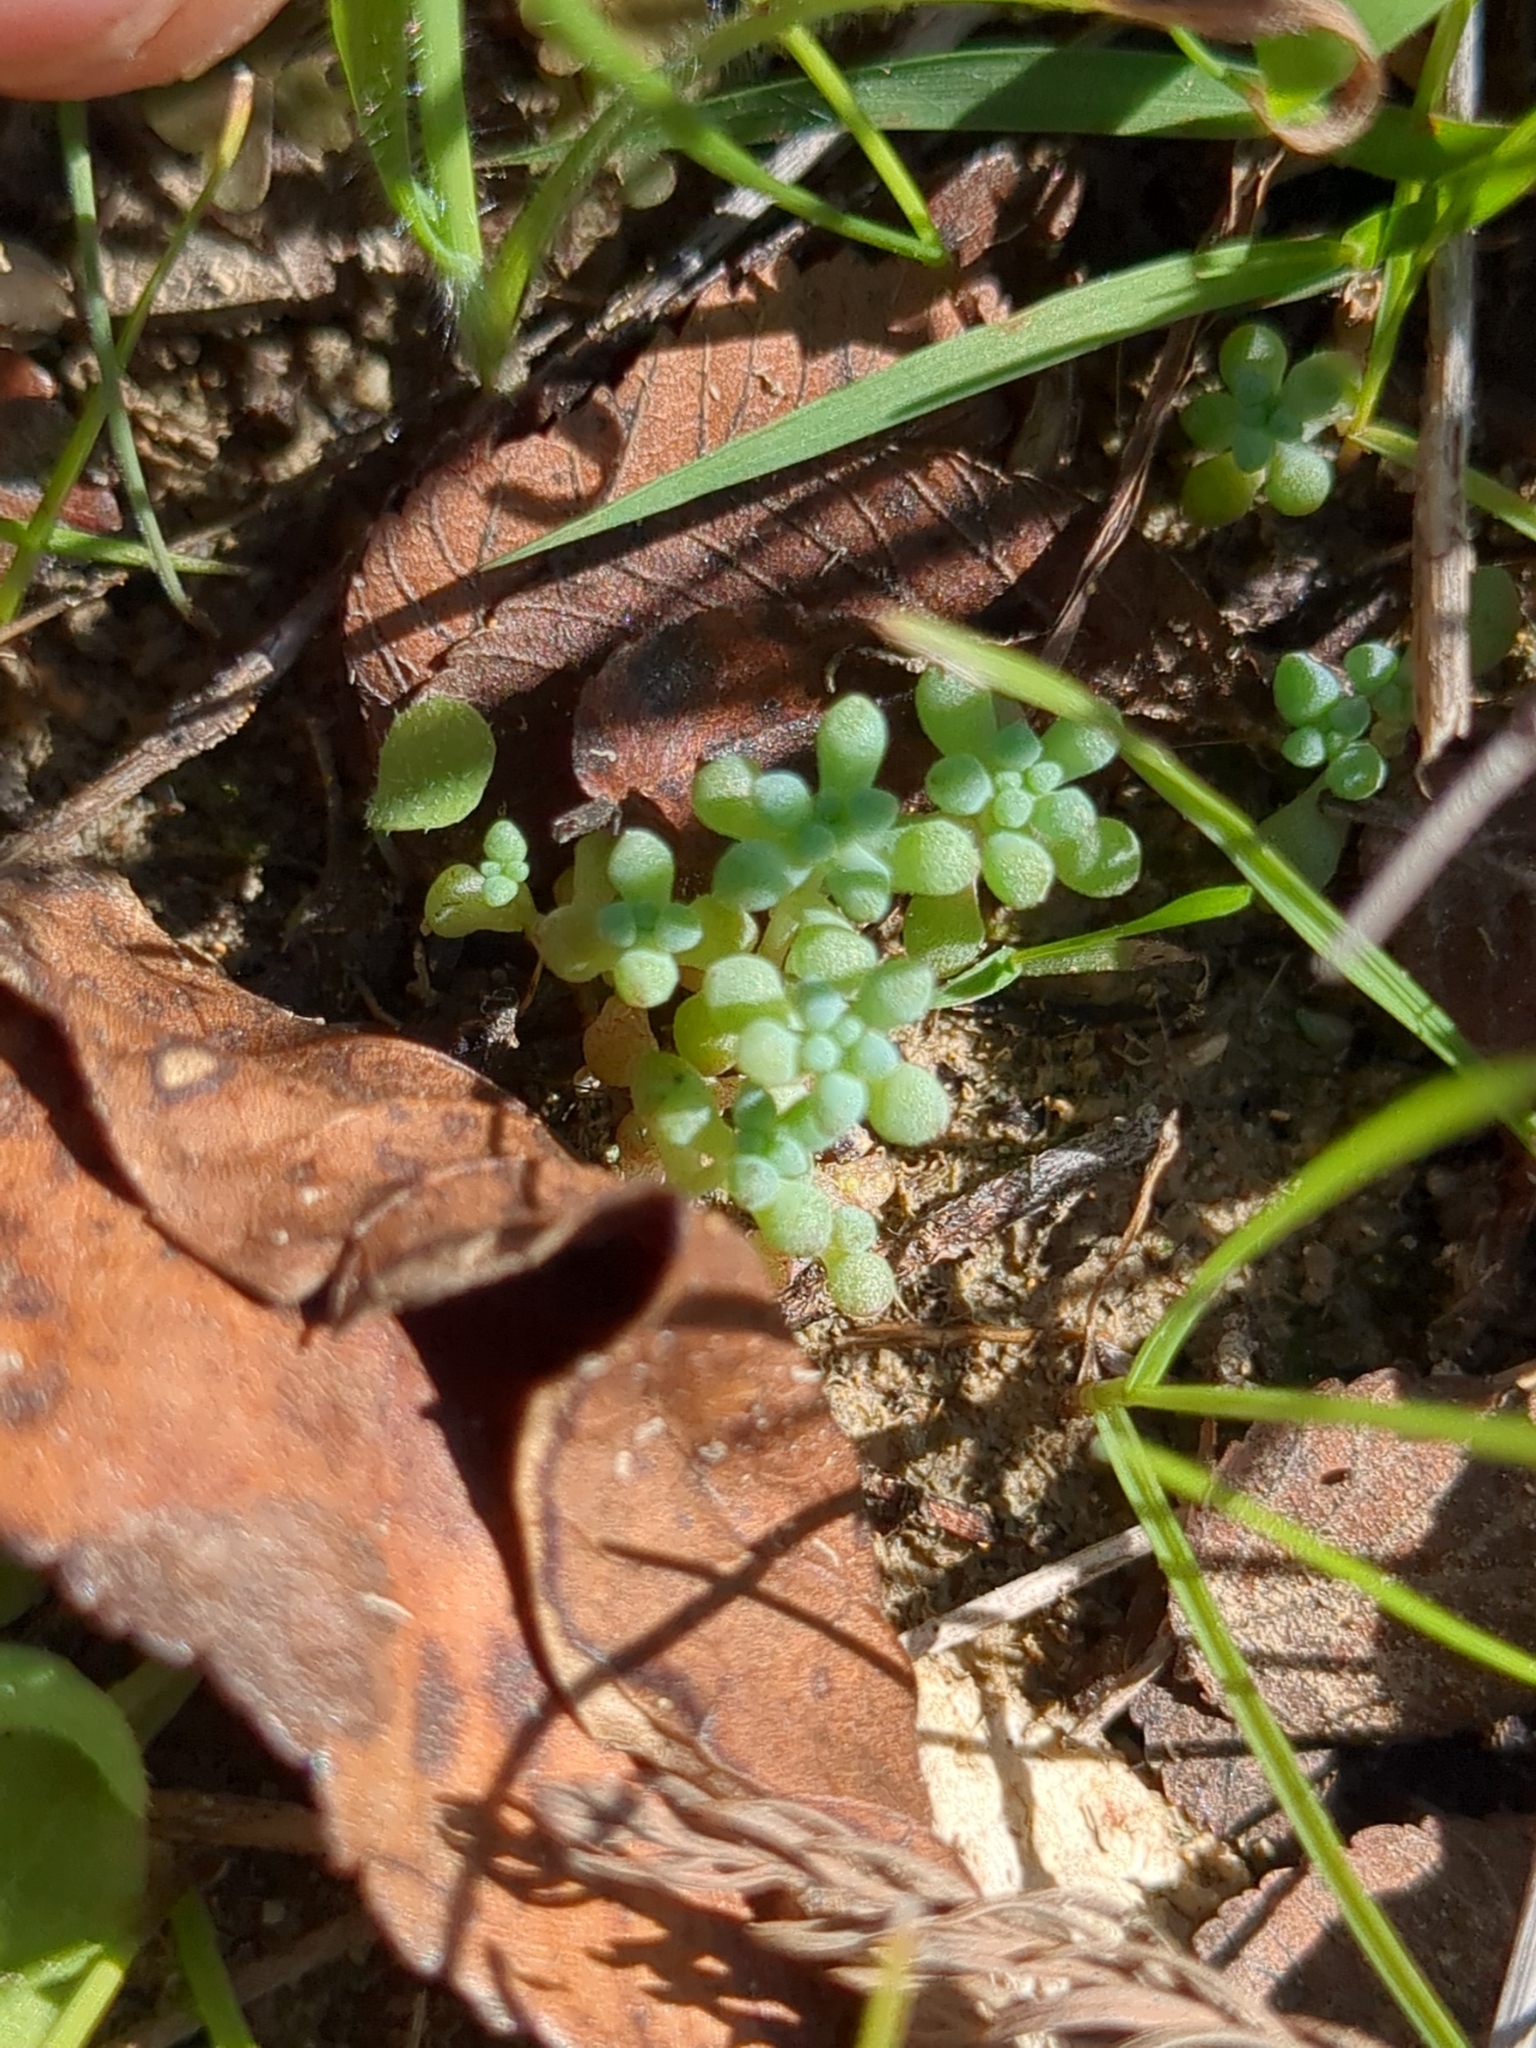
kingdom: Plantae
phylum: Tracheophyta
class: Magnoliopsida
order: Saxifragales
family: Crassulaceae
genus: Sedum
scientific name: Sedum nuttallii
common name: Yellow stonecrop
